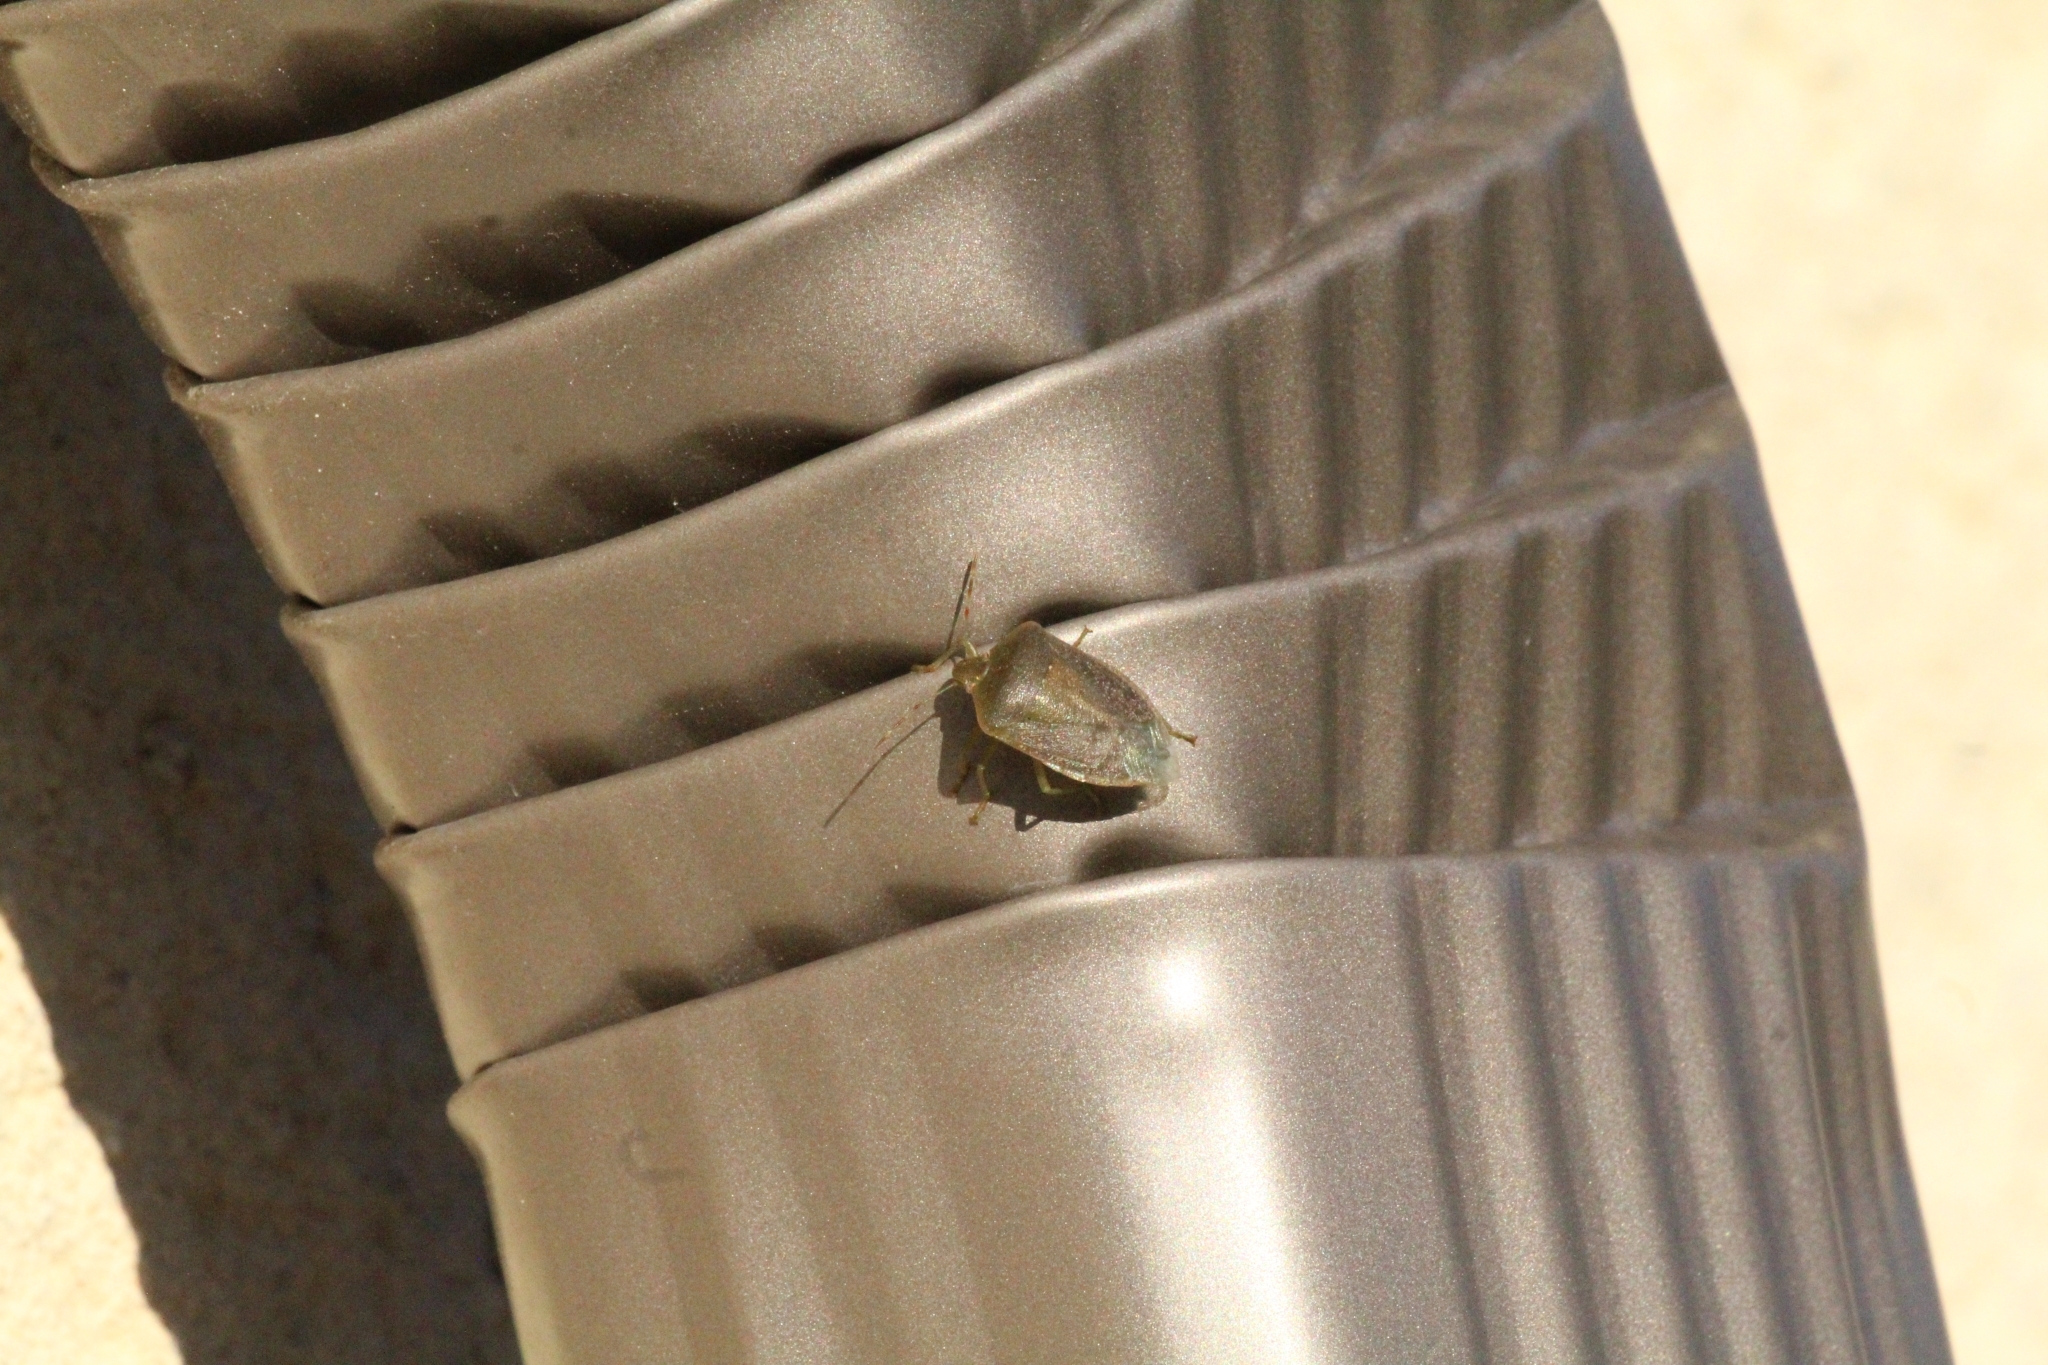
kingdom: Animalia
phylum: Arthropoda
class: Insecta
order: Hemiptera
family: Pentatomidae
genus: Nezara
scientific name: Nezara viridula
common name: Southern green stink bug
